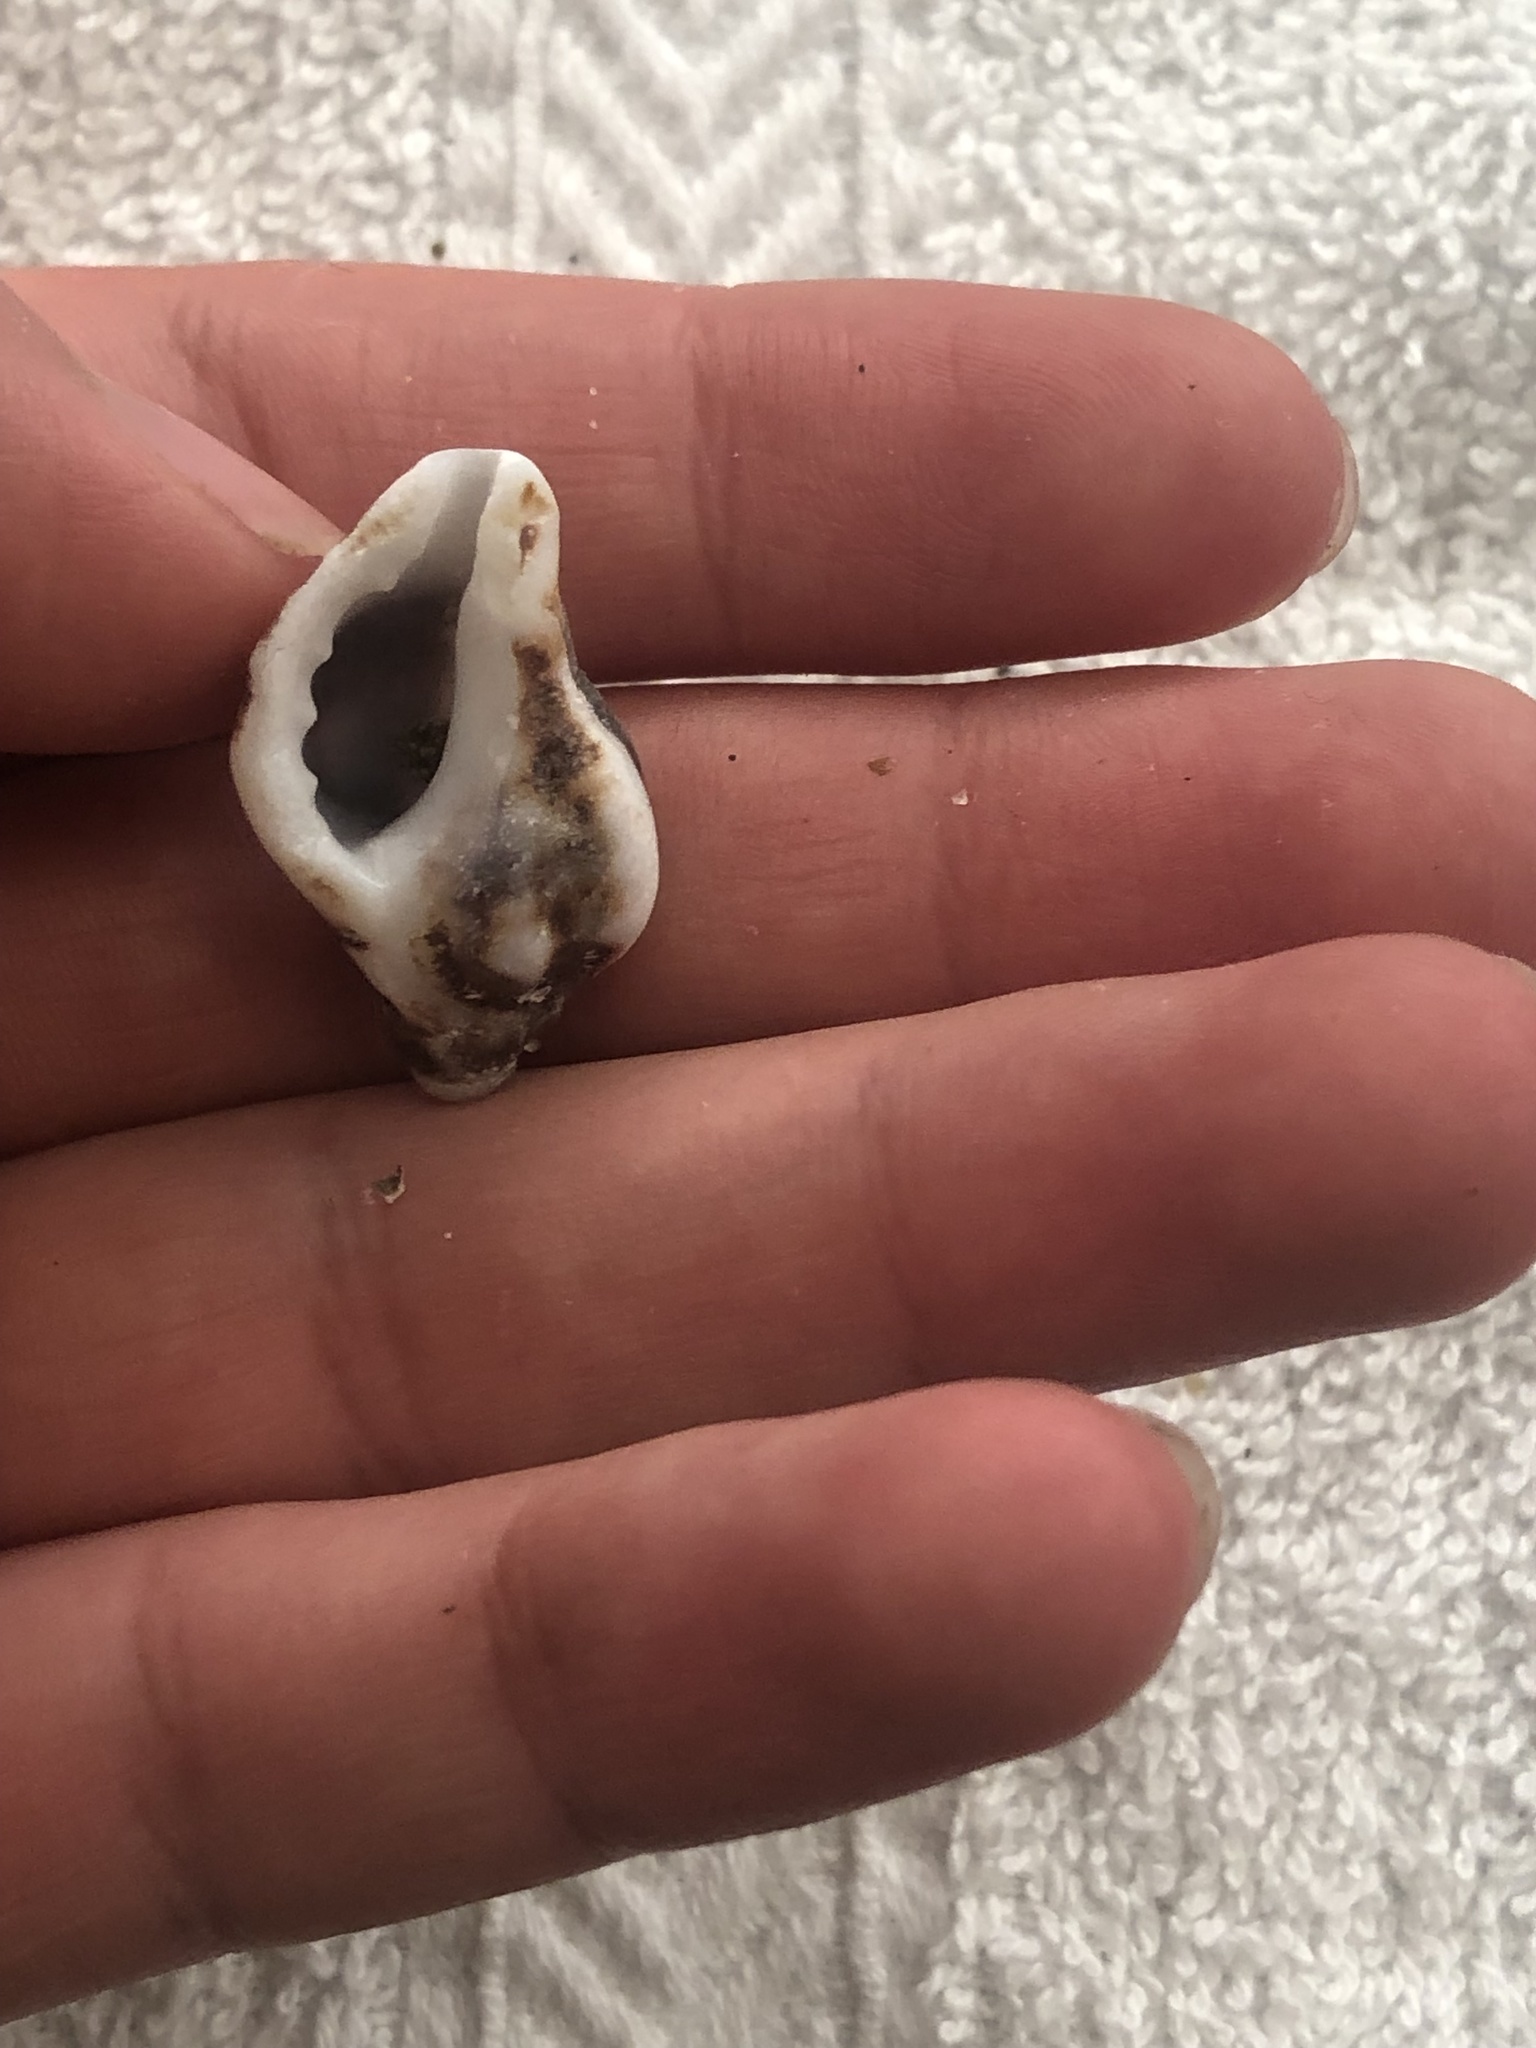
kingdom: Animalia
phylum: Mollusca
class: Gastropoda
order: Neogastropoda
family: Muricidae
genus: Ceratostoma
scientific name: Ceratostoma nuttalli
